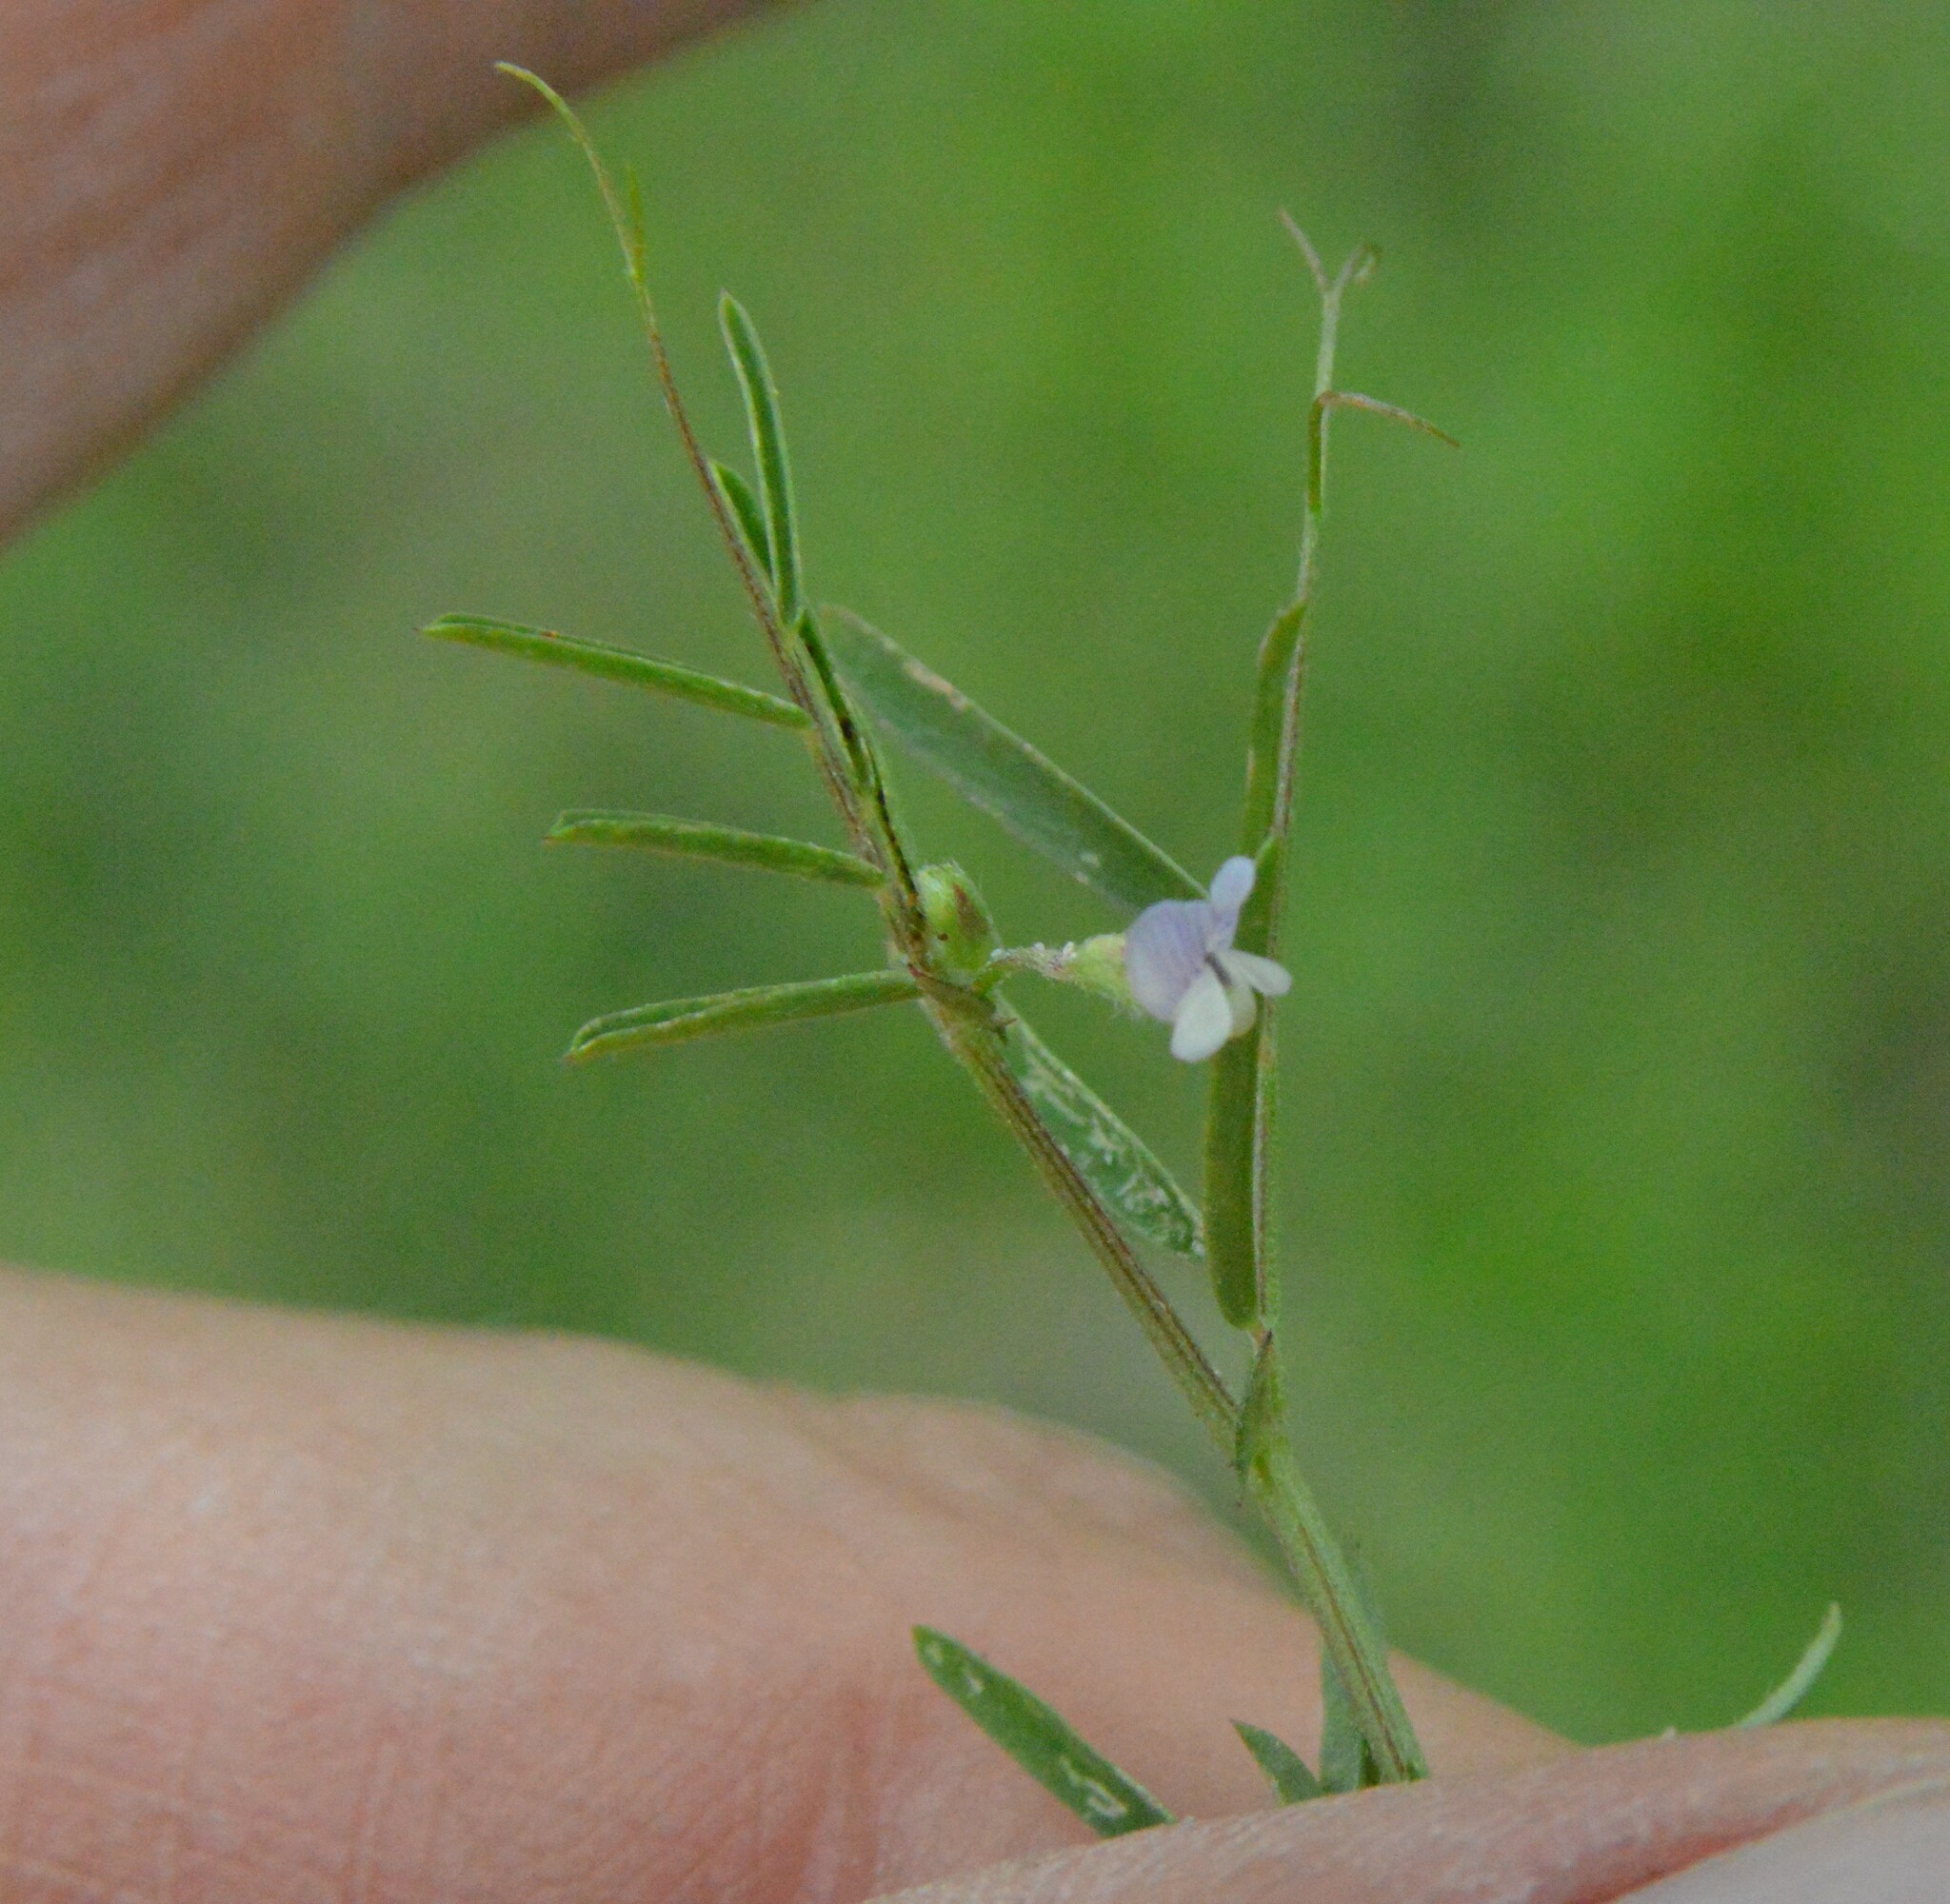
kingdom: Plantae
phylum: Tracheophyta
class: Magnoliopsida
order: Fabales
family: Fabaceae
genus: Vicia
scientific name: Vicia minutiflora
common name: Pygmy-flower vetch
